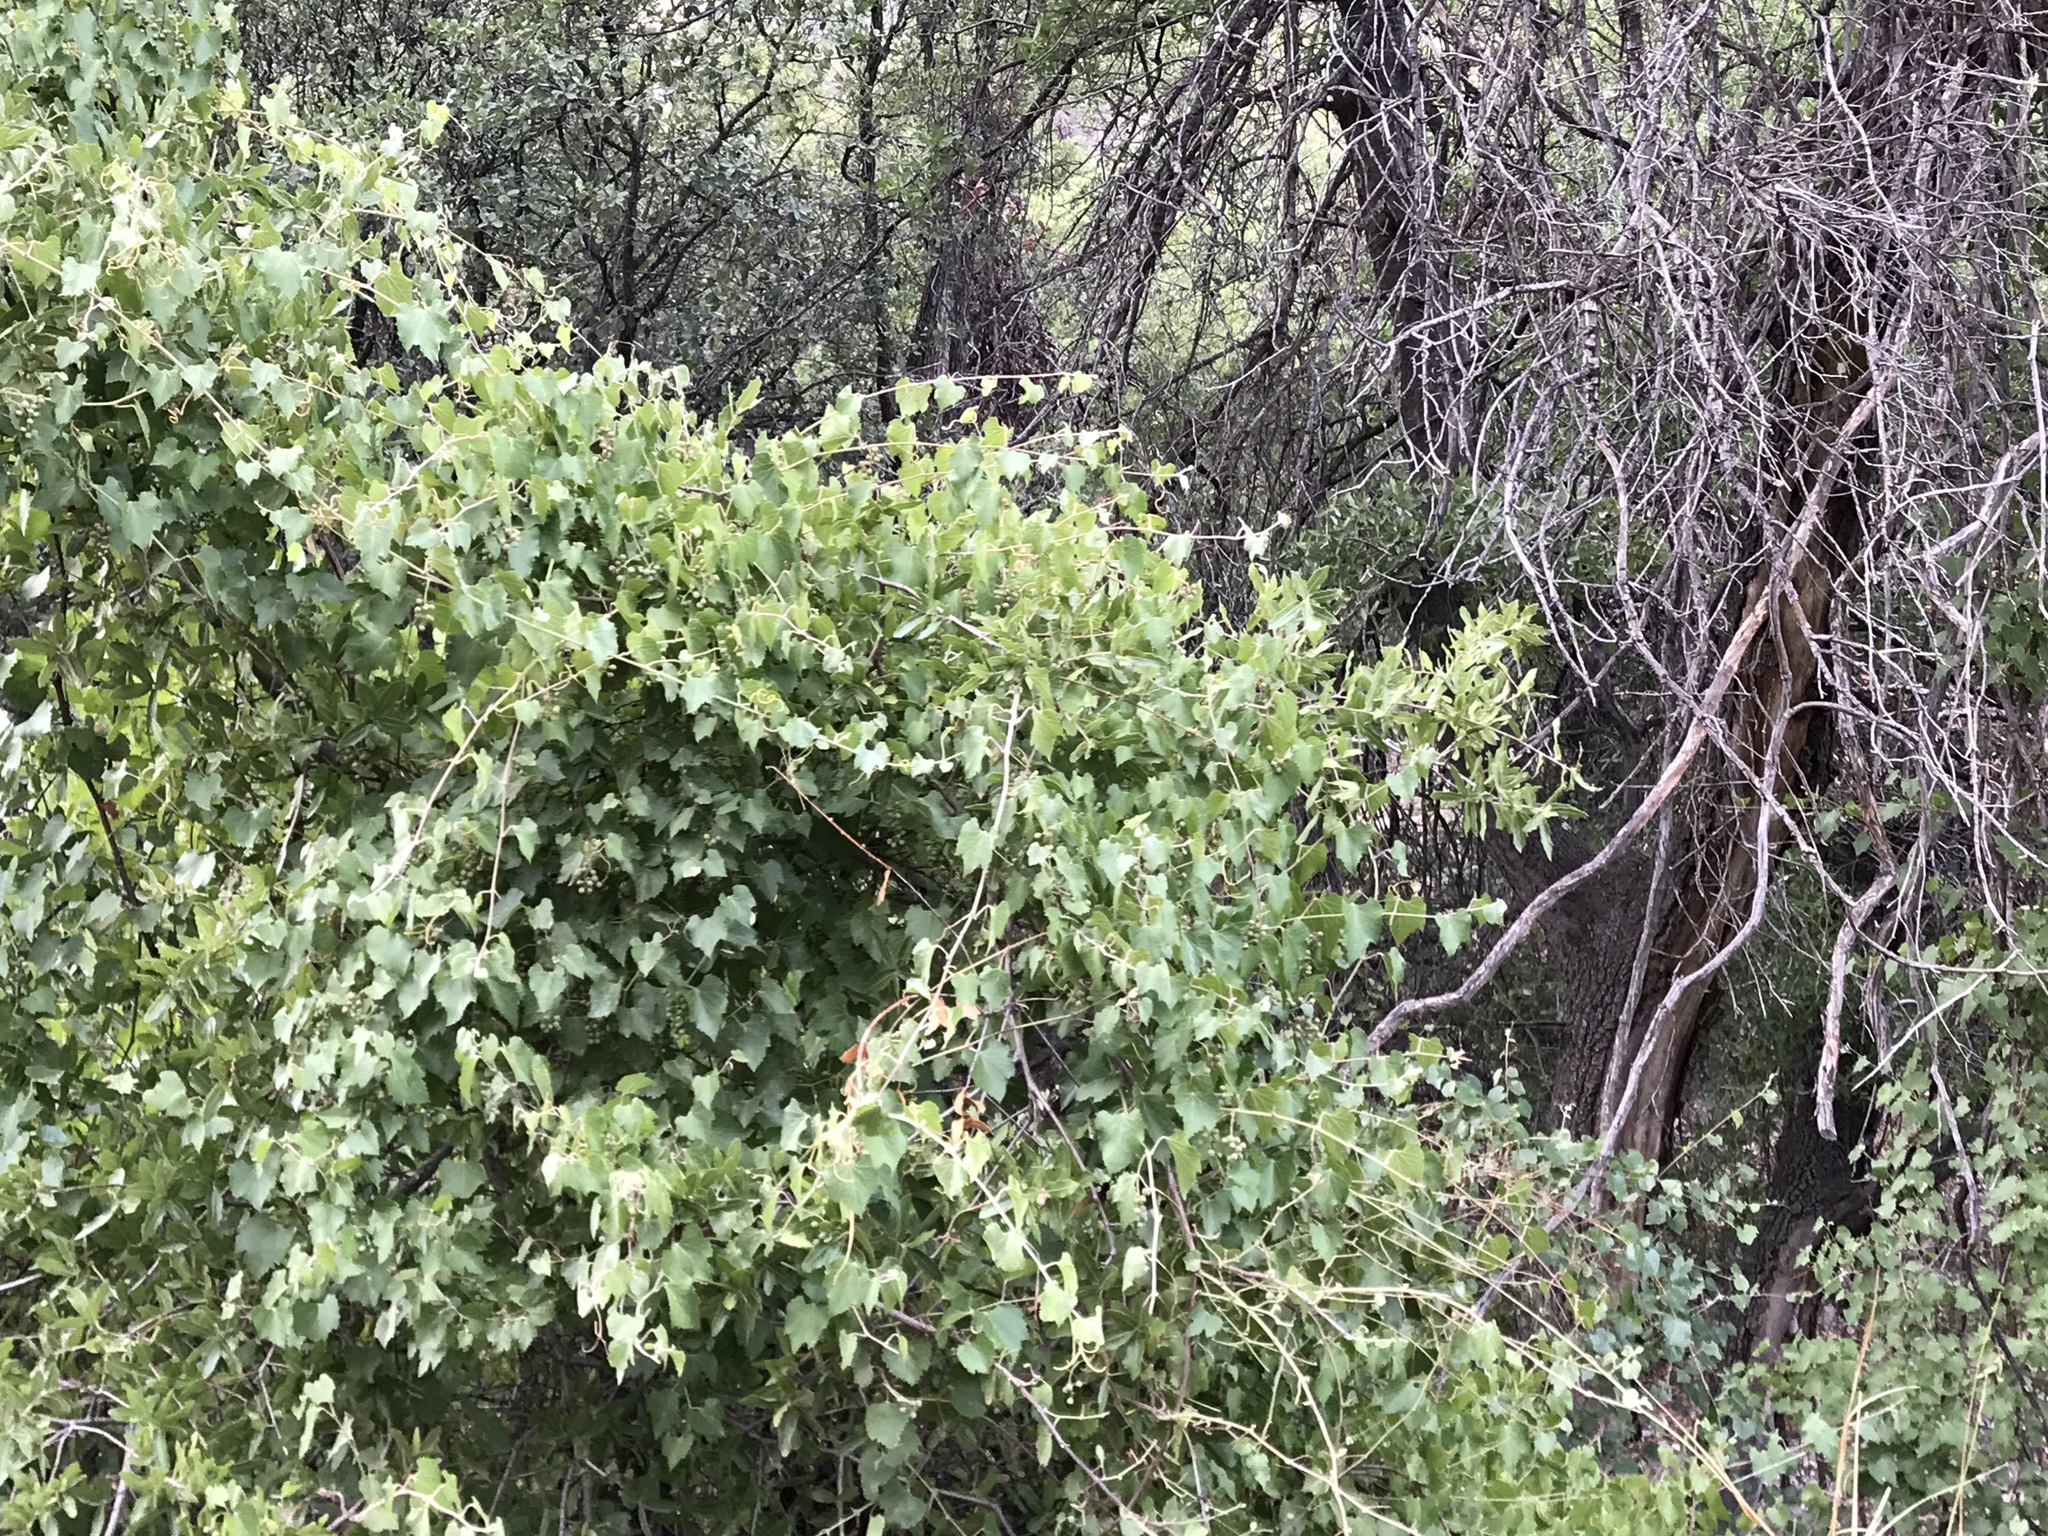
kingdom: Plantae
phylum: Tracheophyta
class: Magnoliopsida
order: Vitales
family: Vitaceae
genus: Vitis
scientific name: Vitis arizonica
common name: Canyon grape
